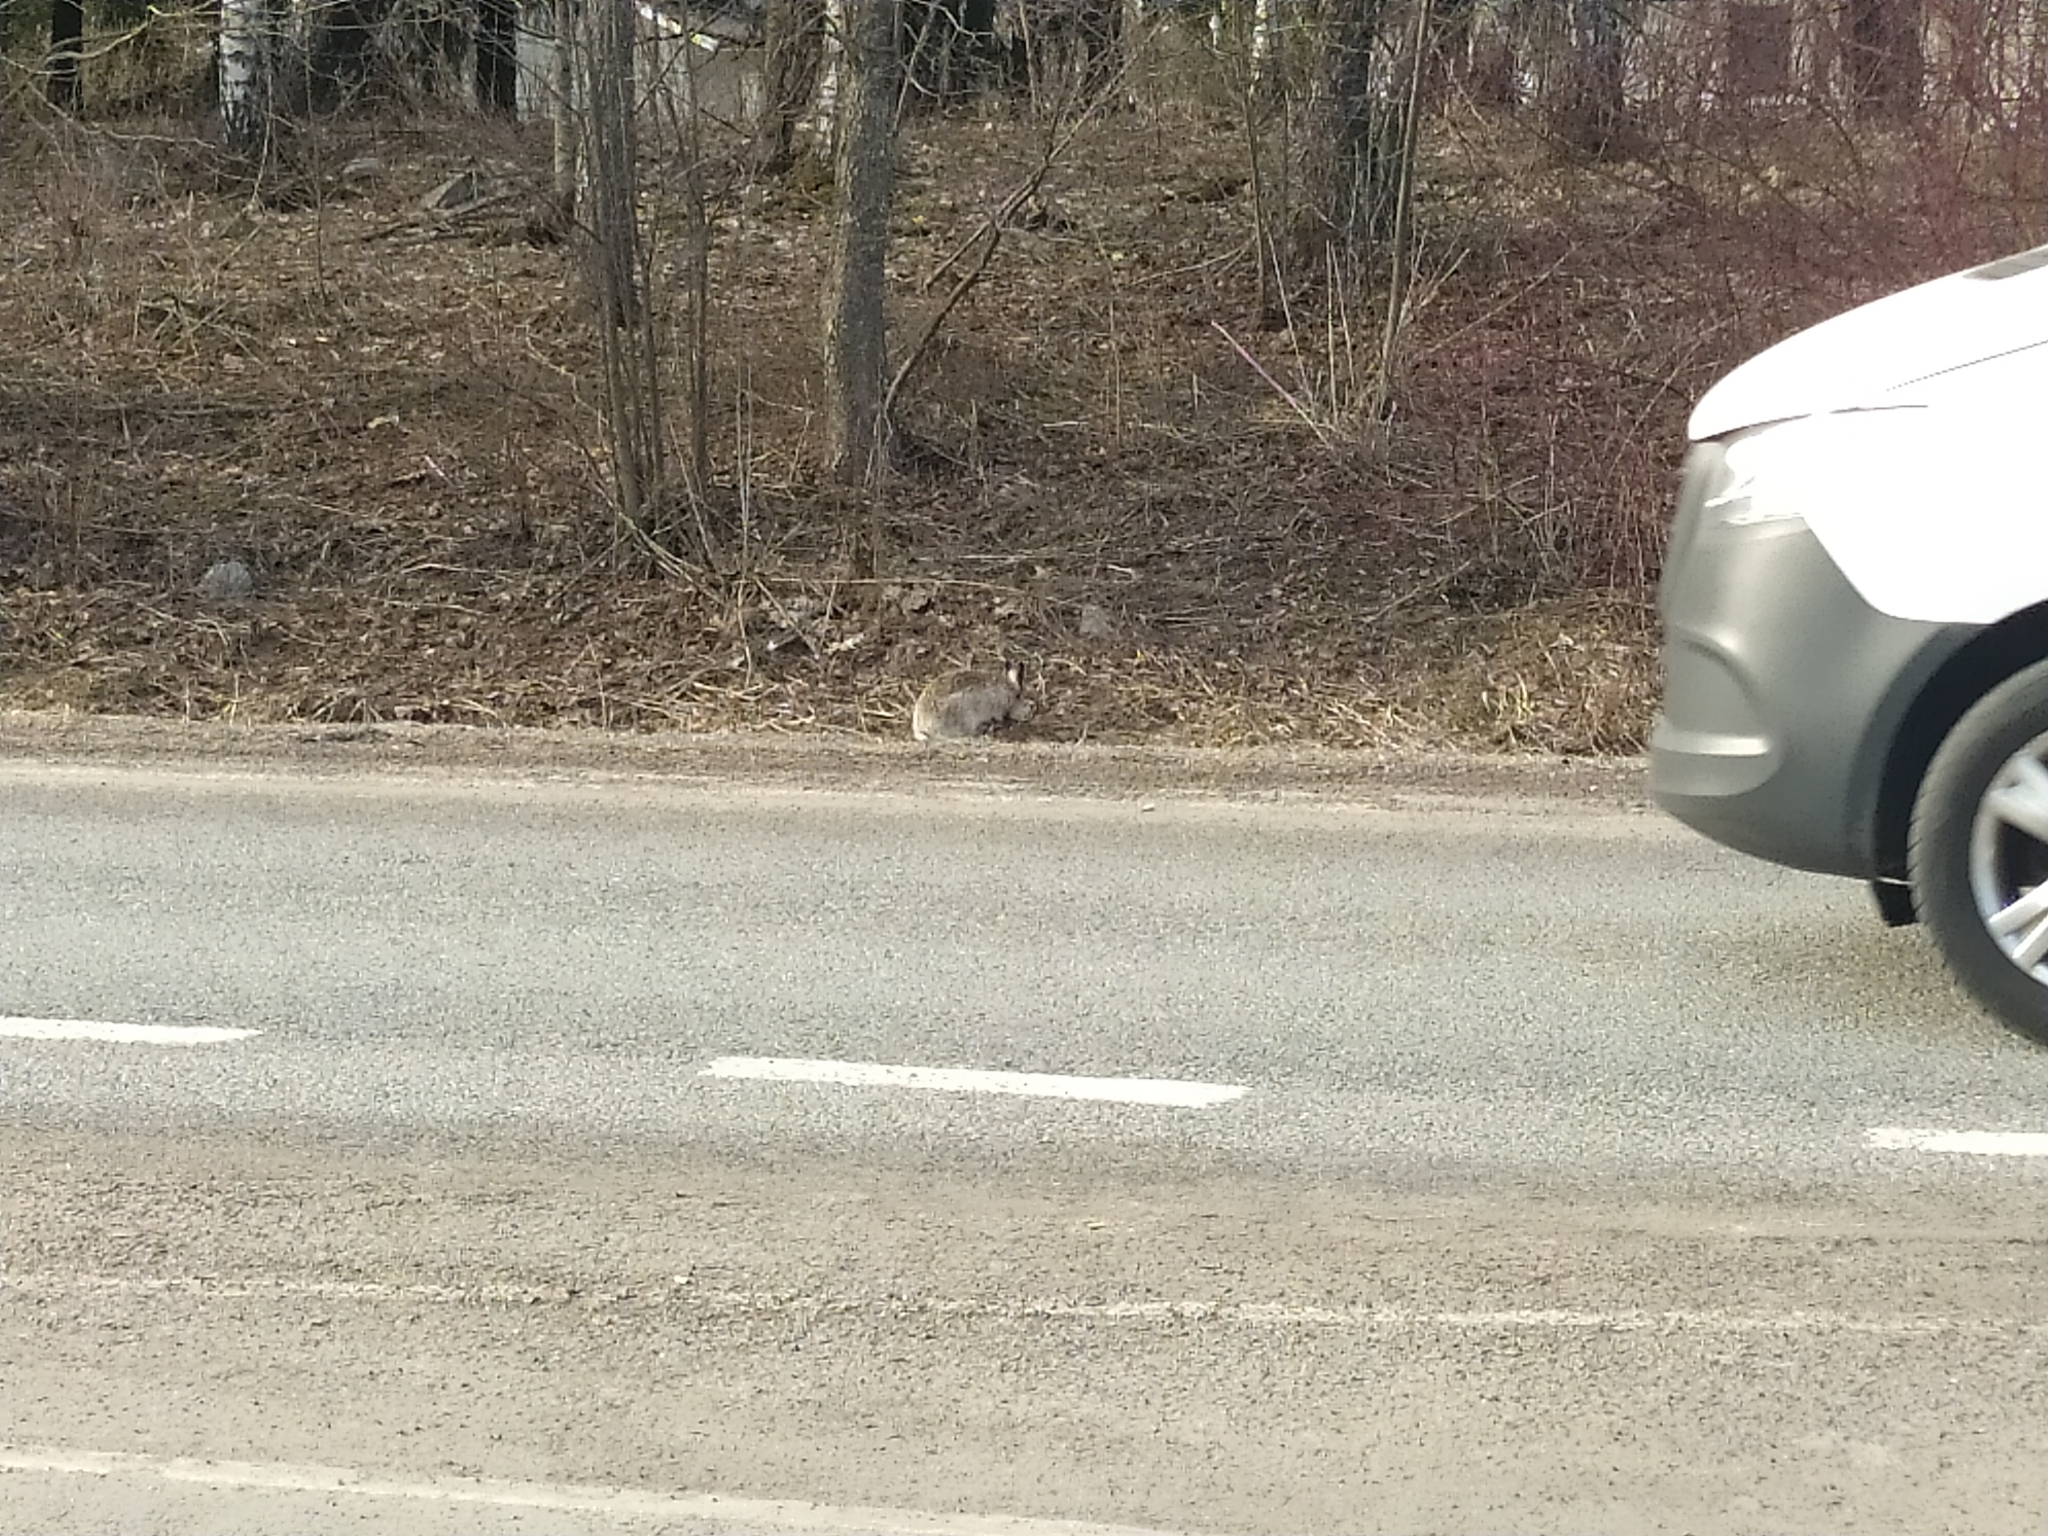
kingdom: Animalia
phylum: Chordata
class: Mammalia
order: Lagomorpha
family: Leporidae
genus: Lepus
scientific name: Lepus europaeus
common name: European hare
